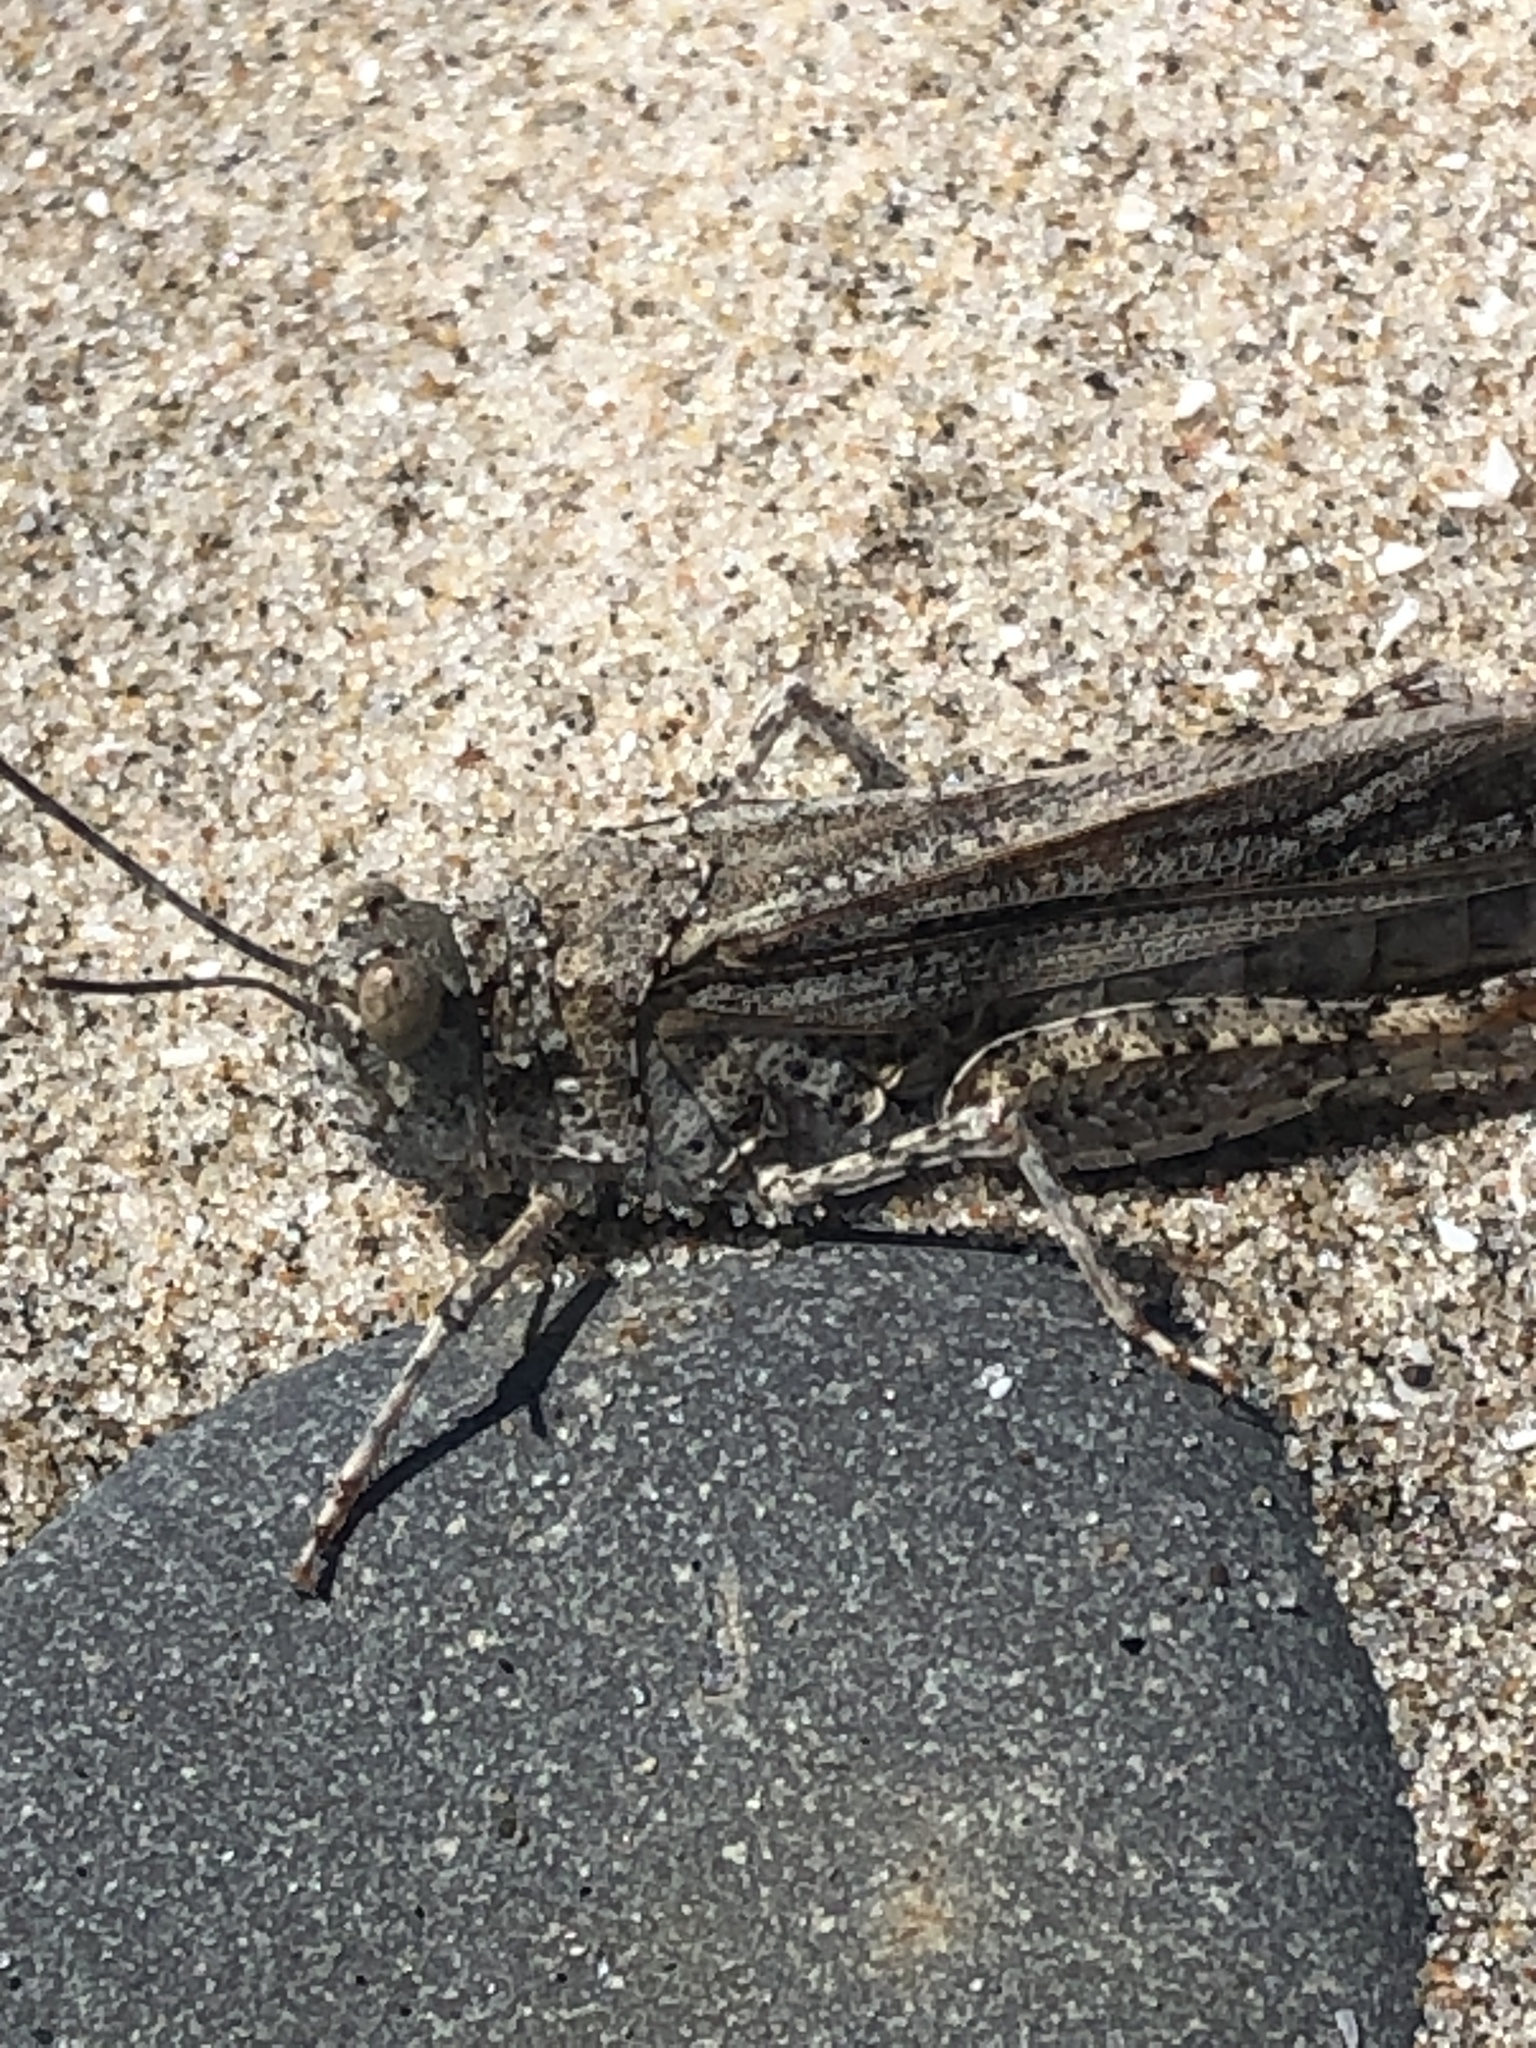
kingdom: Animalia
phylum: Arthropoda
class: Insecta
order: Orthoptera
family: Acrididae
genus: Trimerotropis
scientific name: Trimerotropis maritima
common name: Seaside locust
